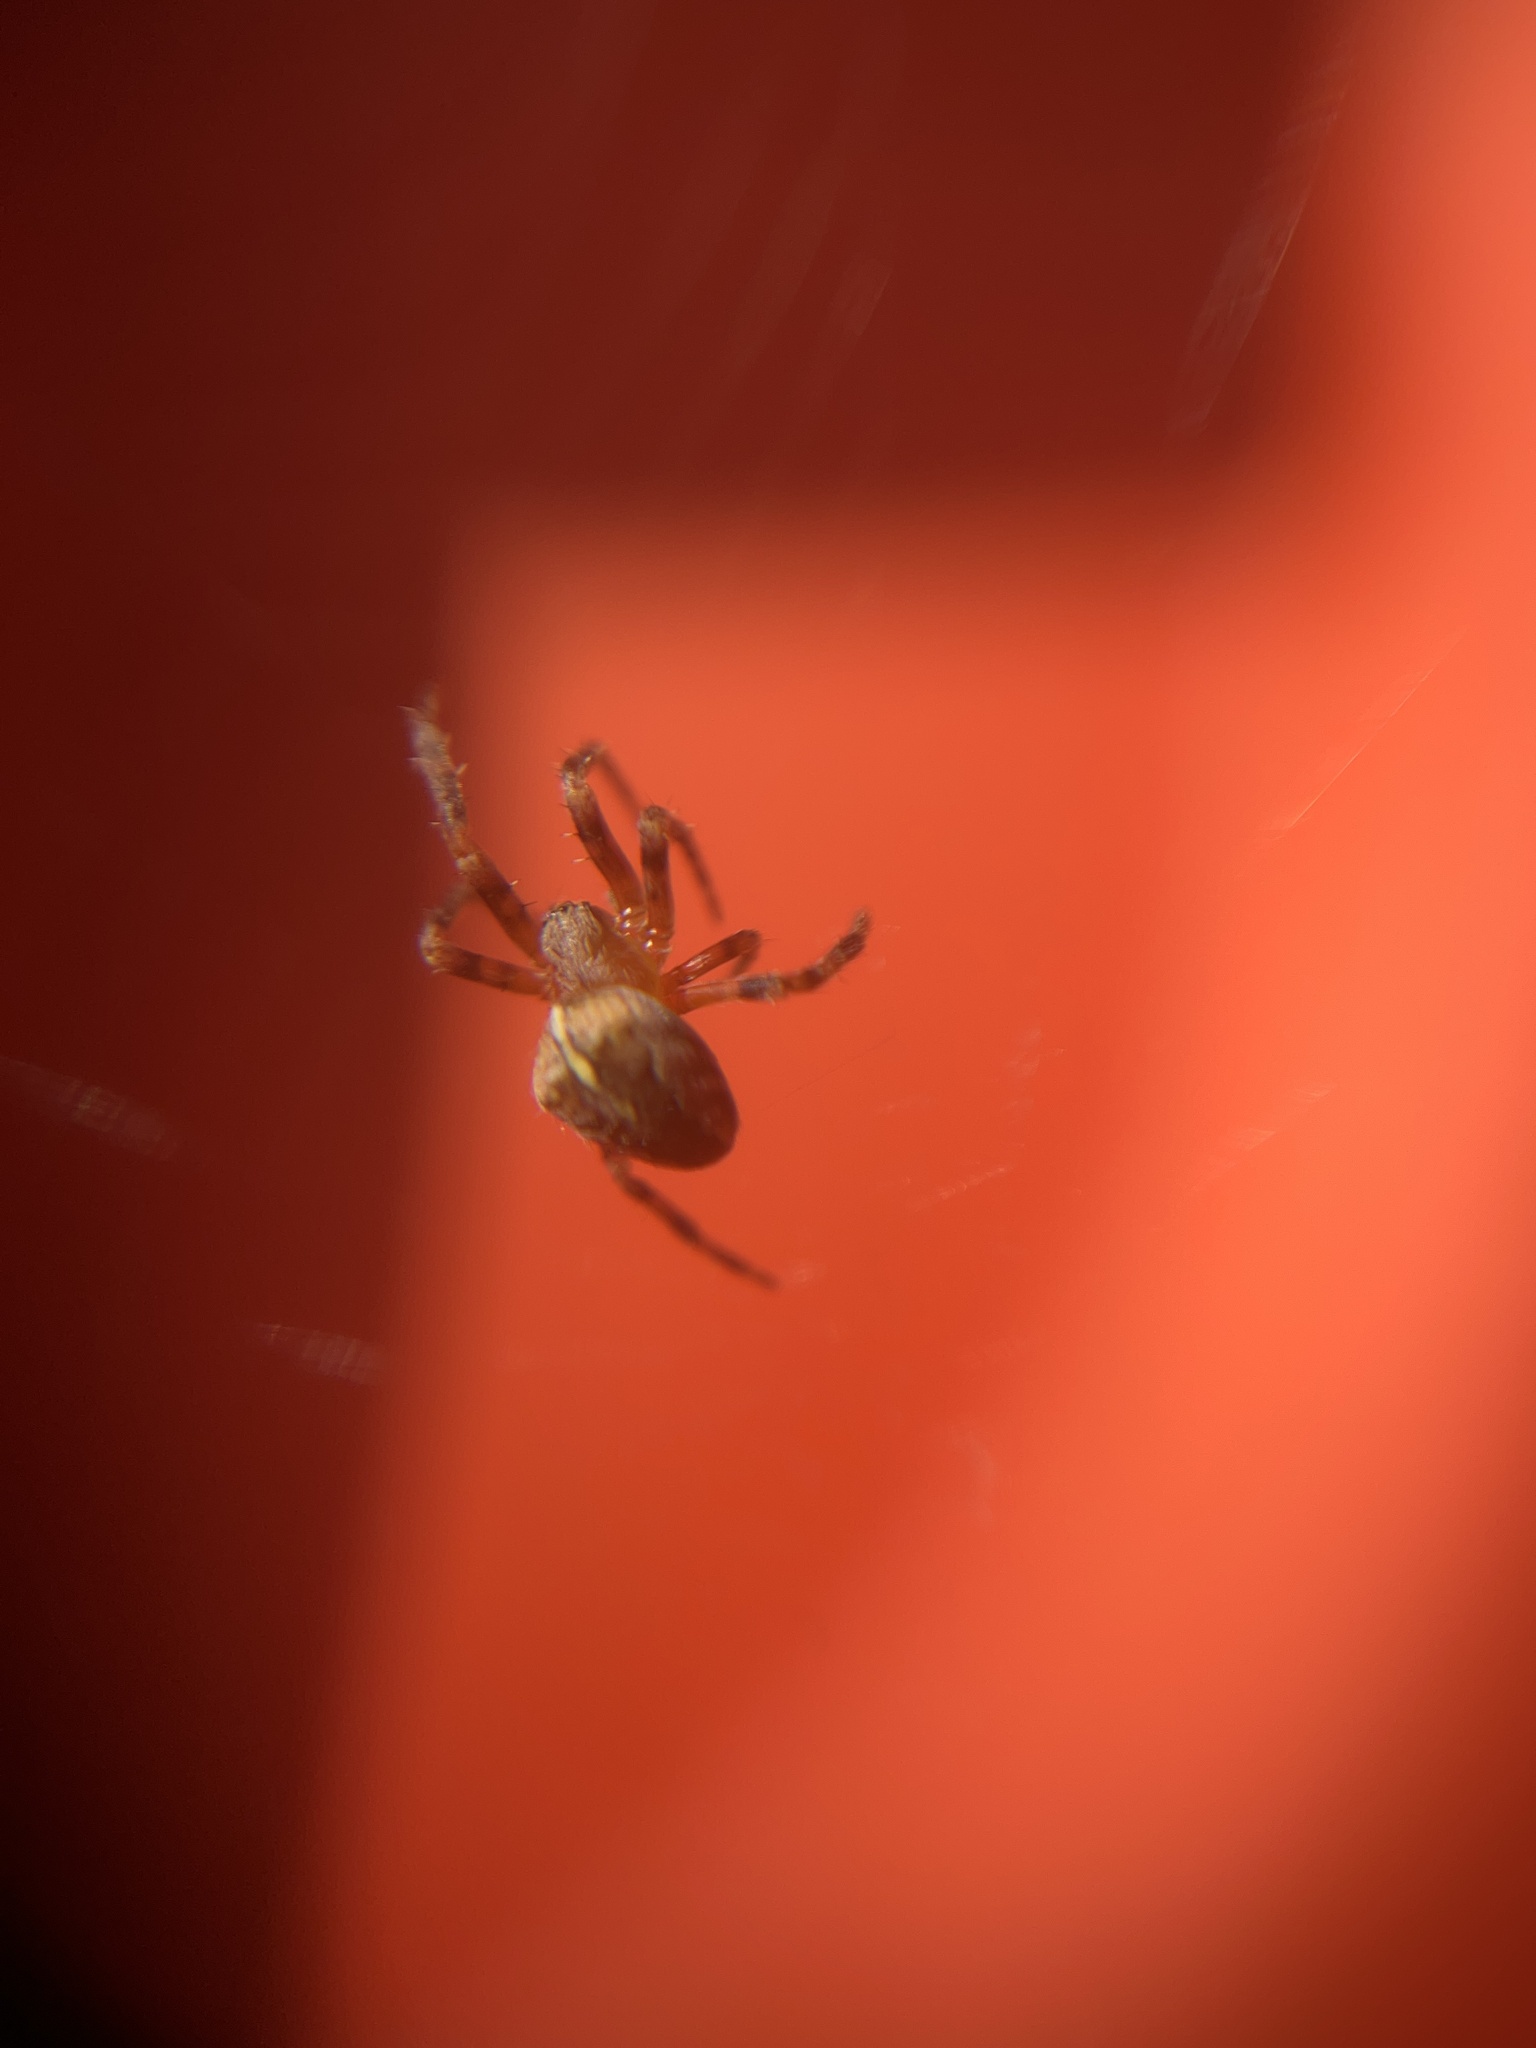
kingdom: Animalia
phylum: Arthropoda
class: Arachnida
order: Araneae
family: Araneidae
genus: Araneus
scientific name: Araneus diadematus
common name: Cross orbweaver
